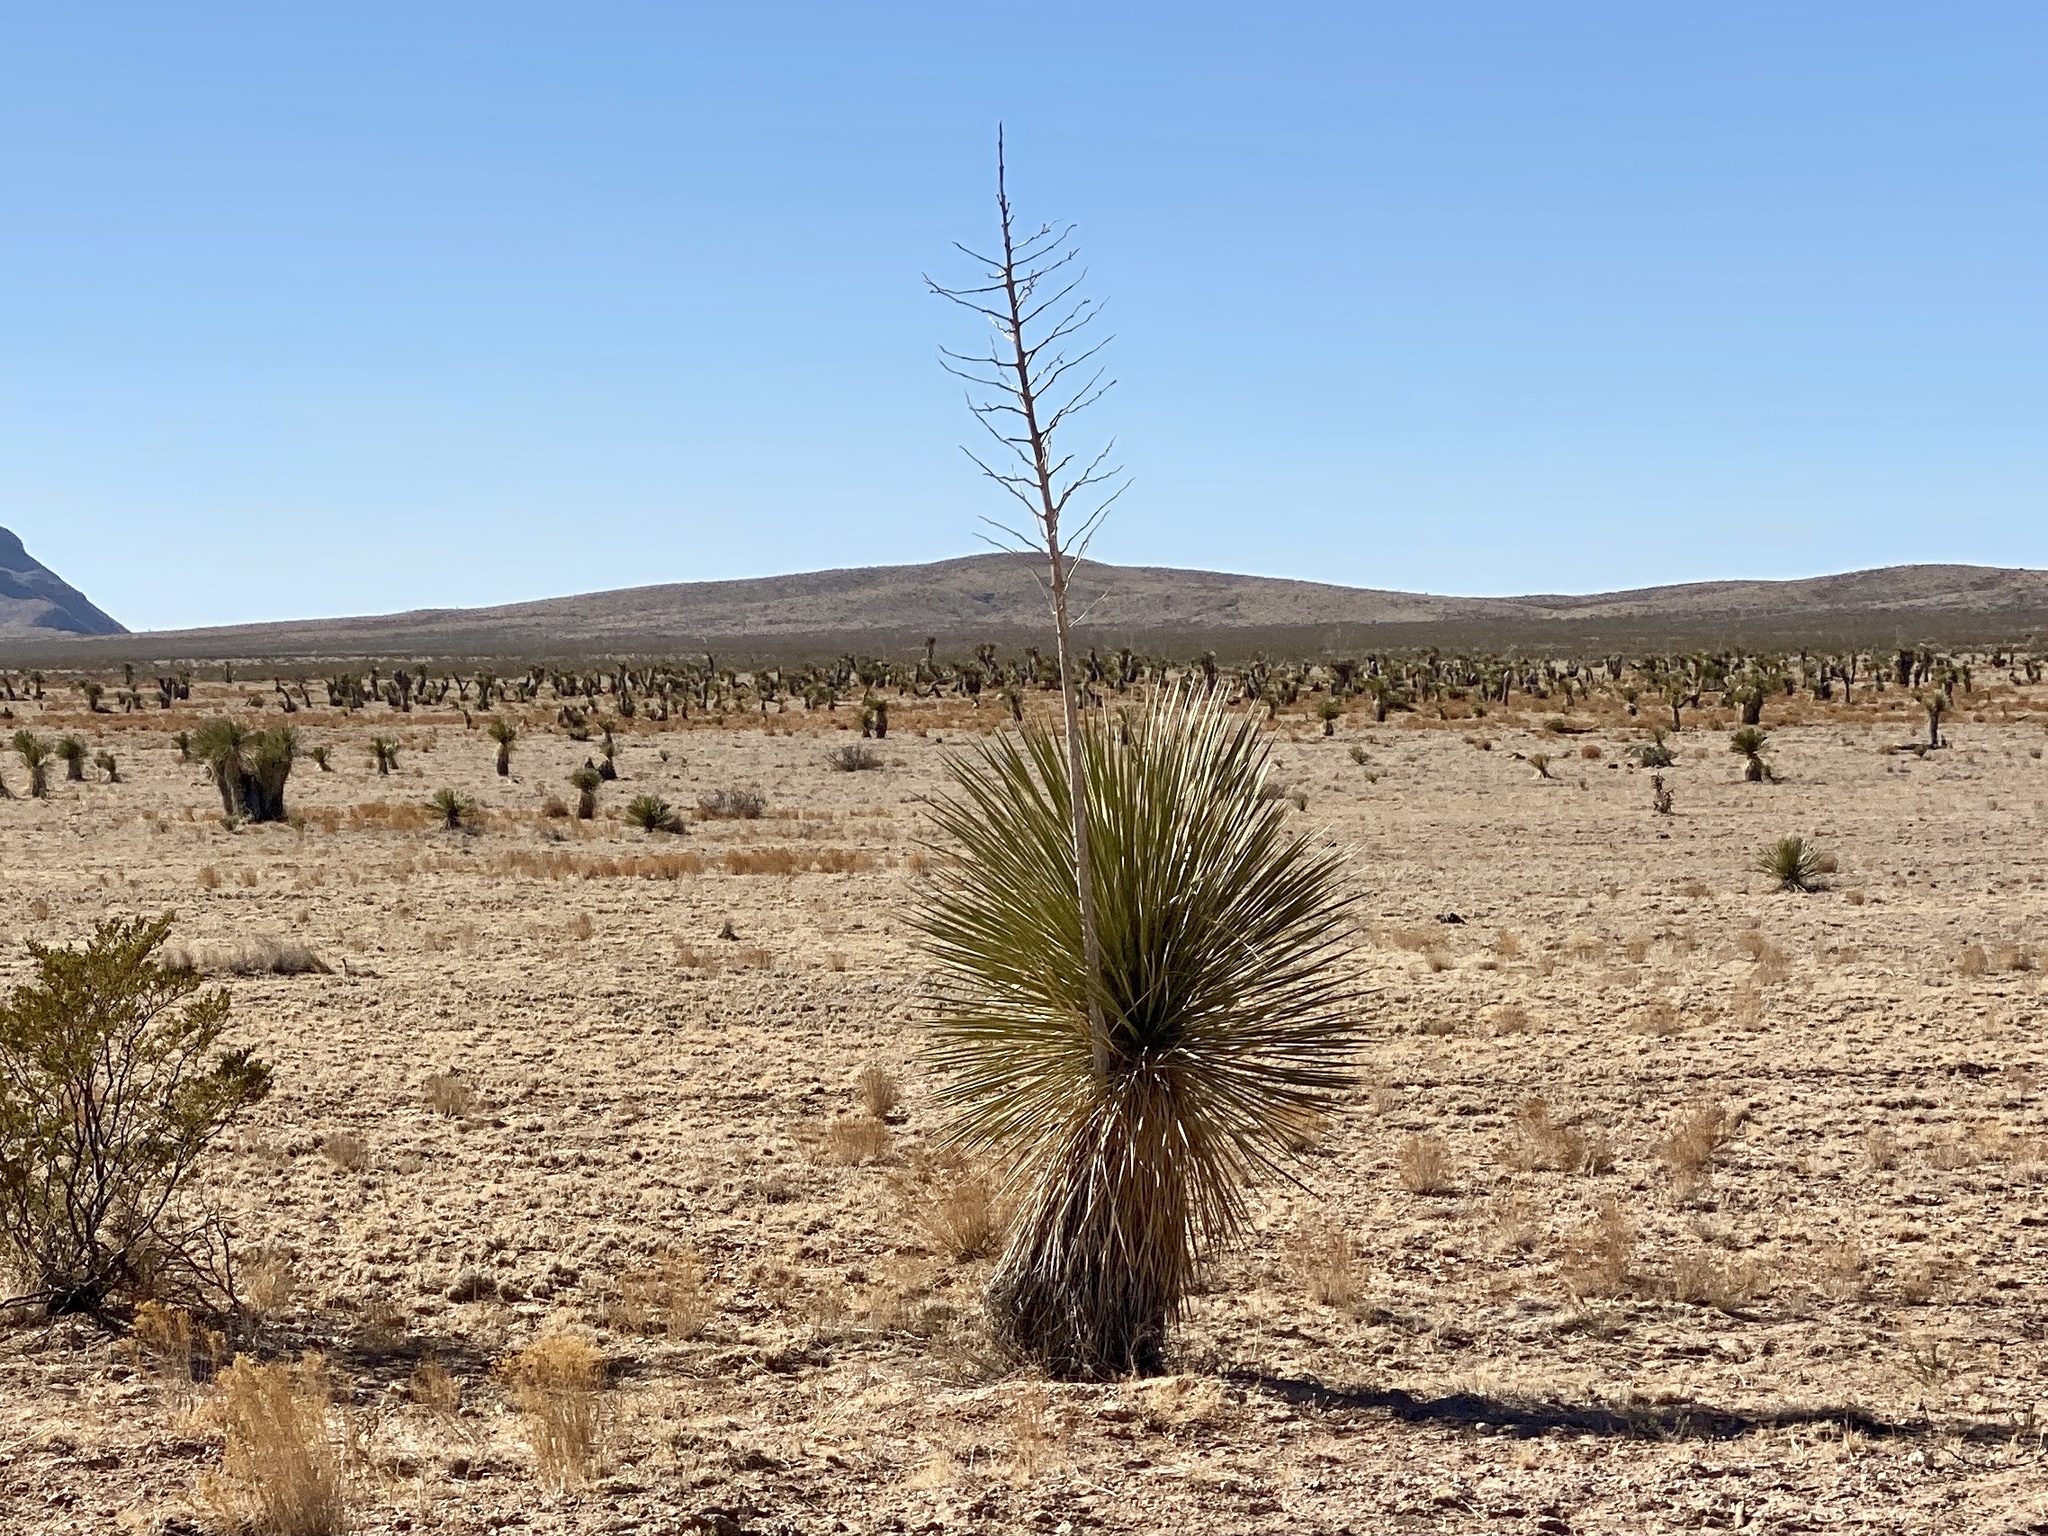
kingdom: Plantae
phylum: Tracheophyta
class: Liliopsida
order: Asparagales
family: Asparagaceae
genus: Yucca
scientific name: Yucca elata
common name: Palmella
